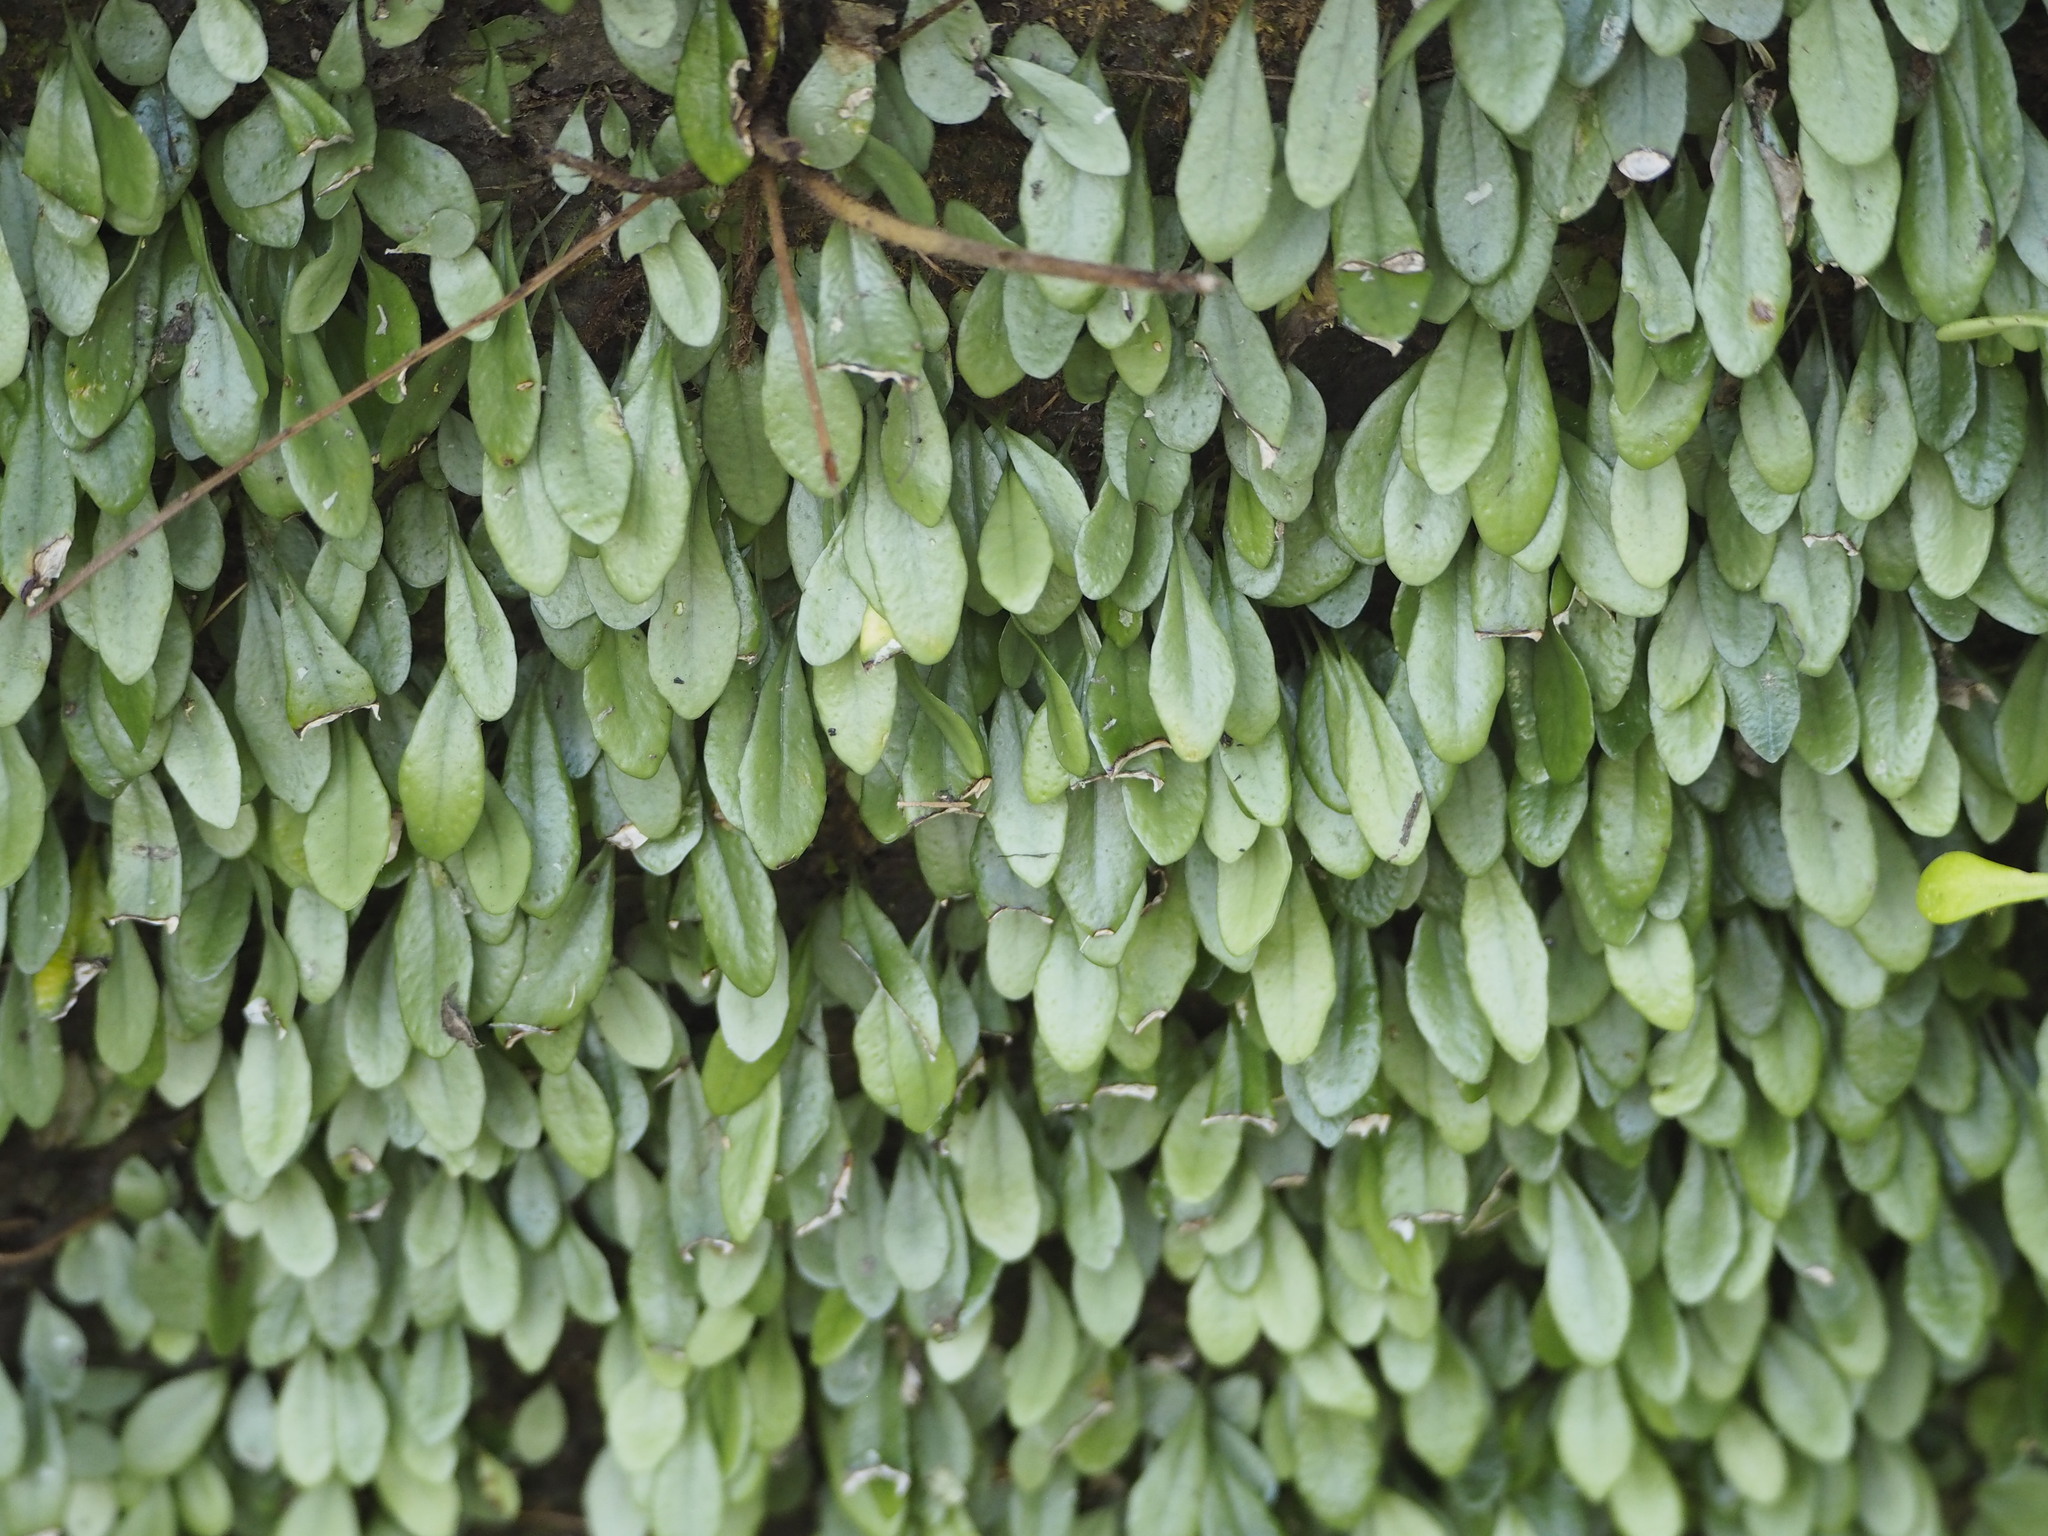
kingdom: Plantae
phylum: Tracheophyta
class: Polypodiopsida
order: Polypodiales
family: Polypodiaceae
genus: Lepisorus
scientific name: Lepisorus microphyllus
